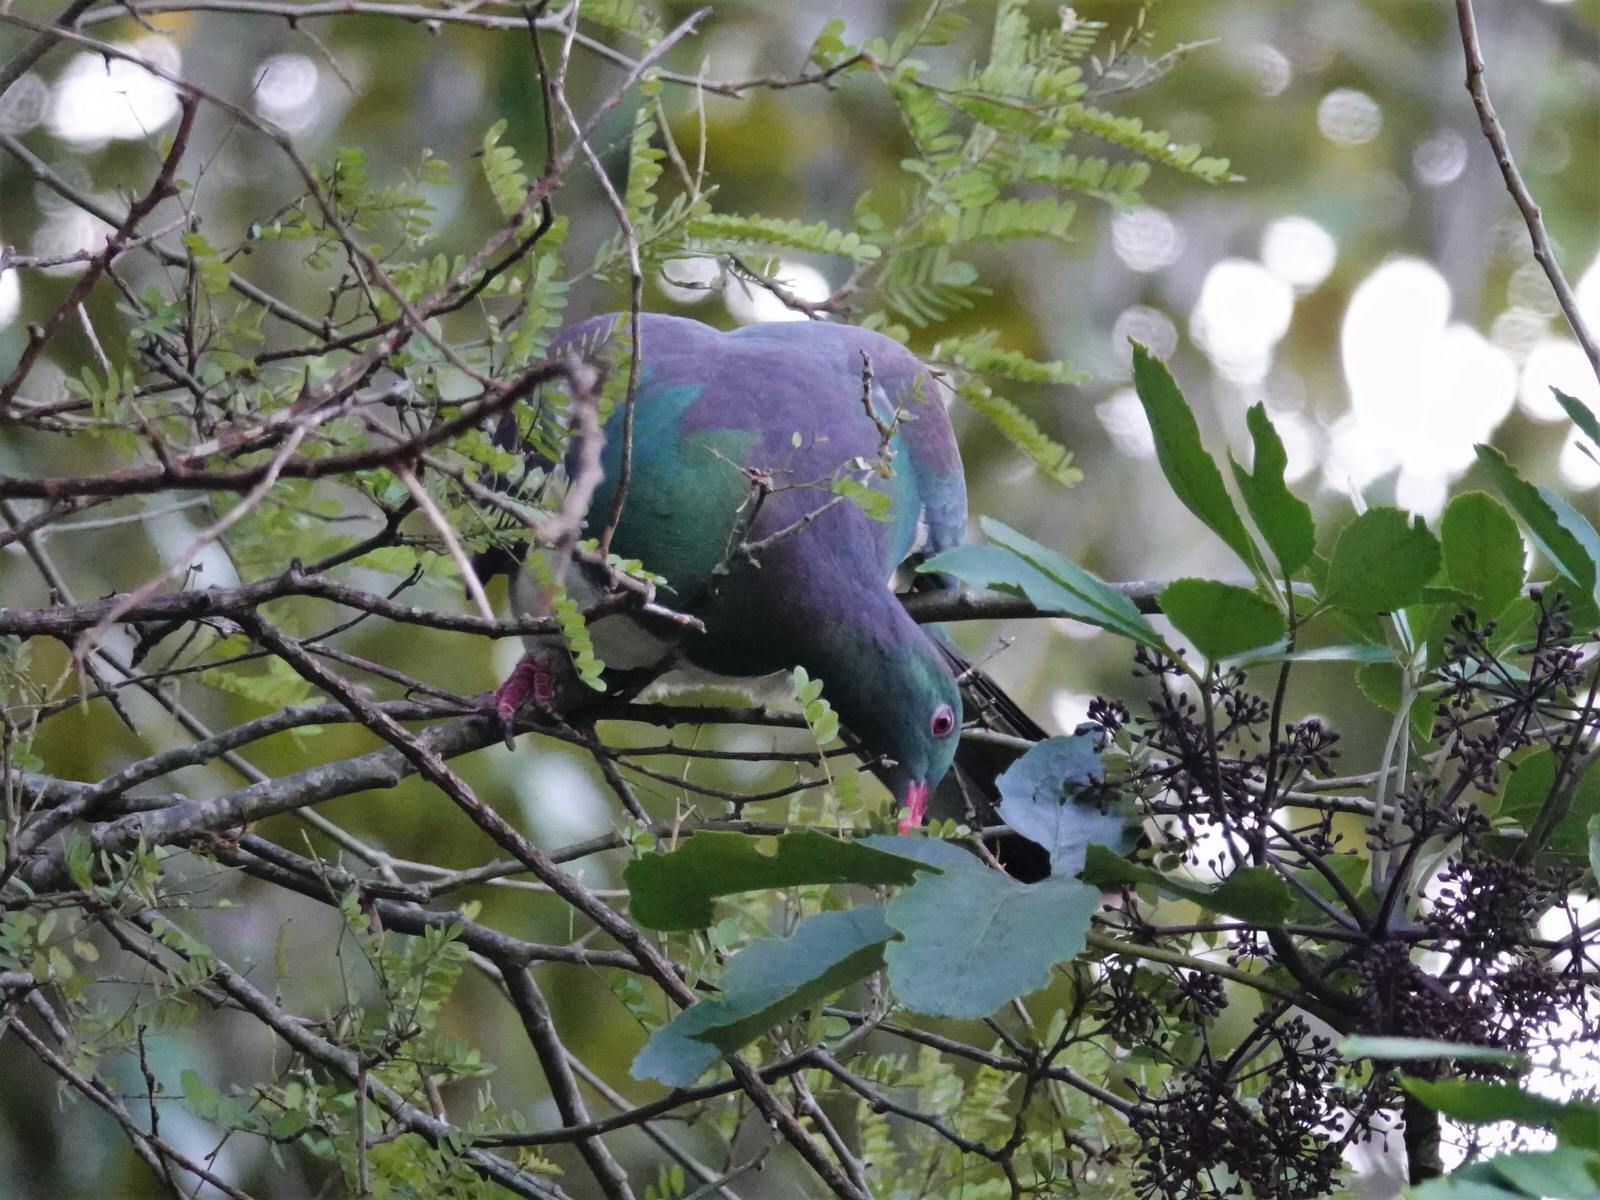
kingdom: Animalia
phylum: Chordata
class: Aves
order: Columbiformes
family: Columbidae
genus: Hemiphaga
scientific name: Hemiphaga novaeseelandiae
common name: New zealand pigeon
